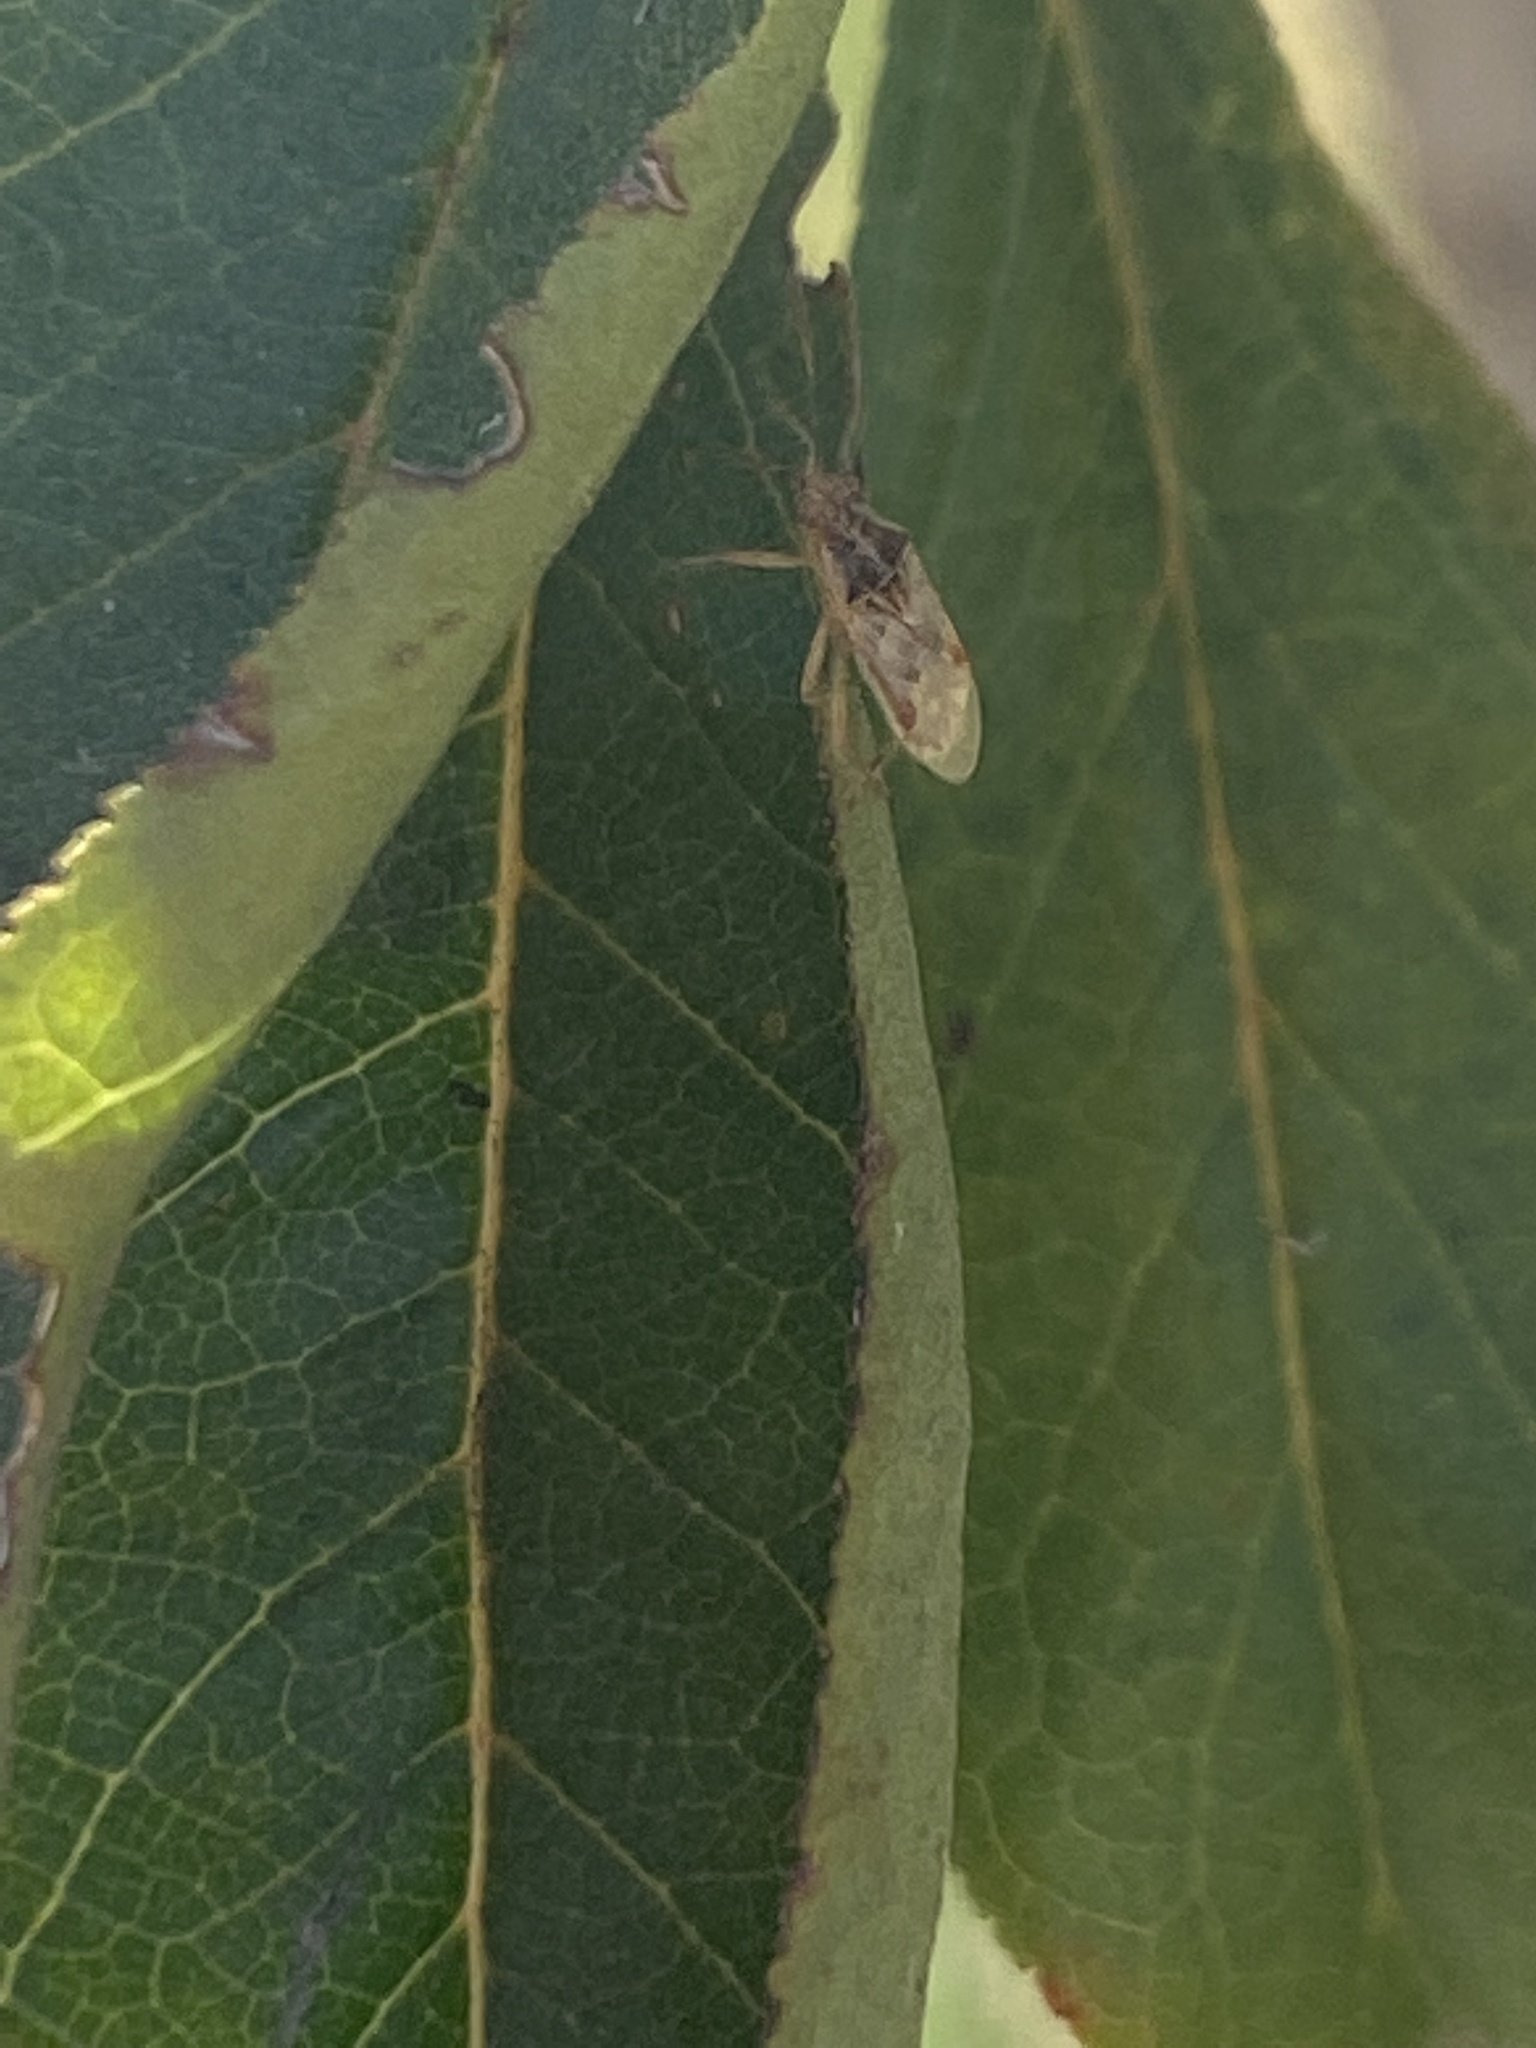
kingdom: Animalia
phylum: Arthropoda
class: Insecta
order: Hemiptera
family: Rhopalidae
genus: Liorhyssus
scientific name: Liorhyssus hyalinus
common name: Scentless plant bug
